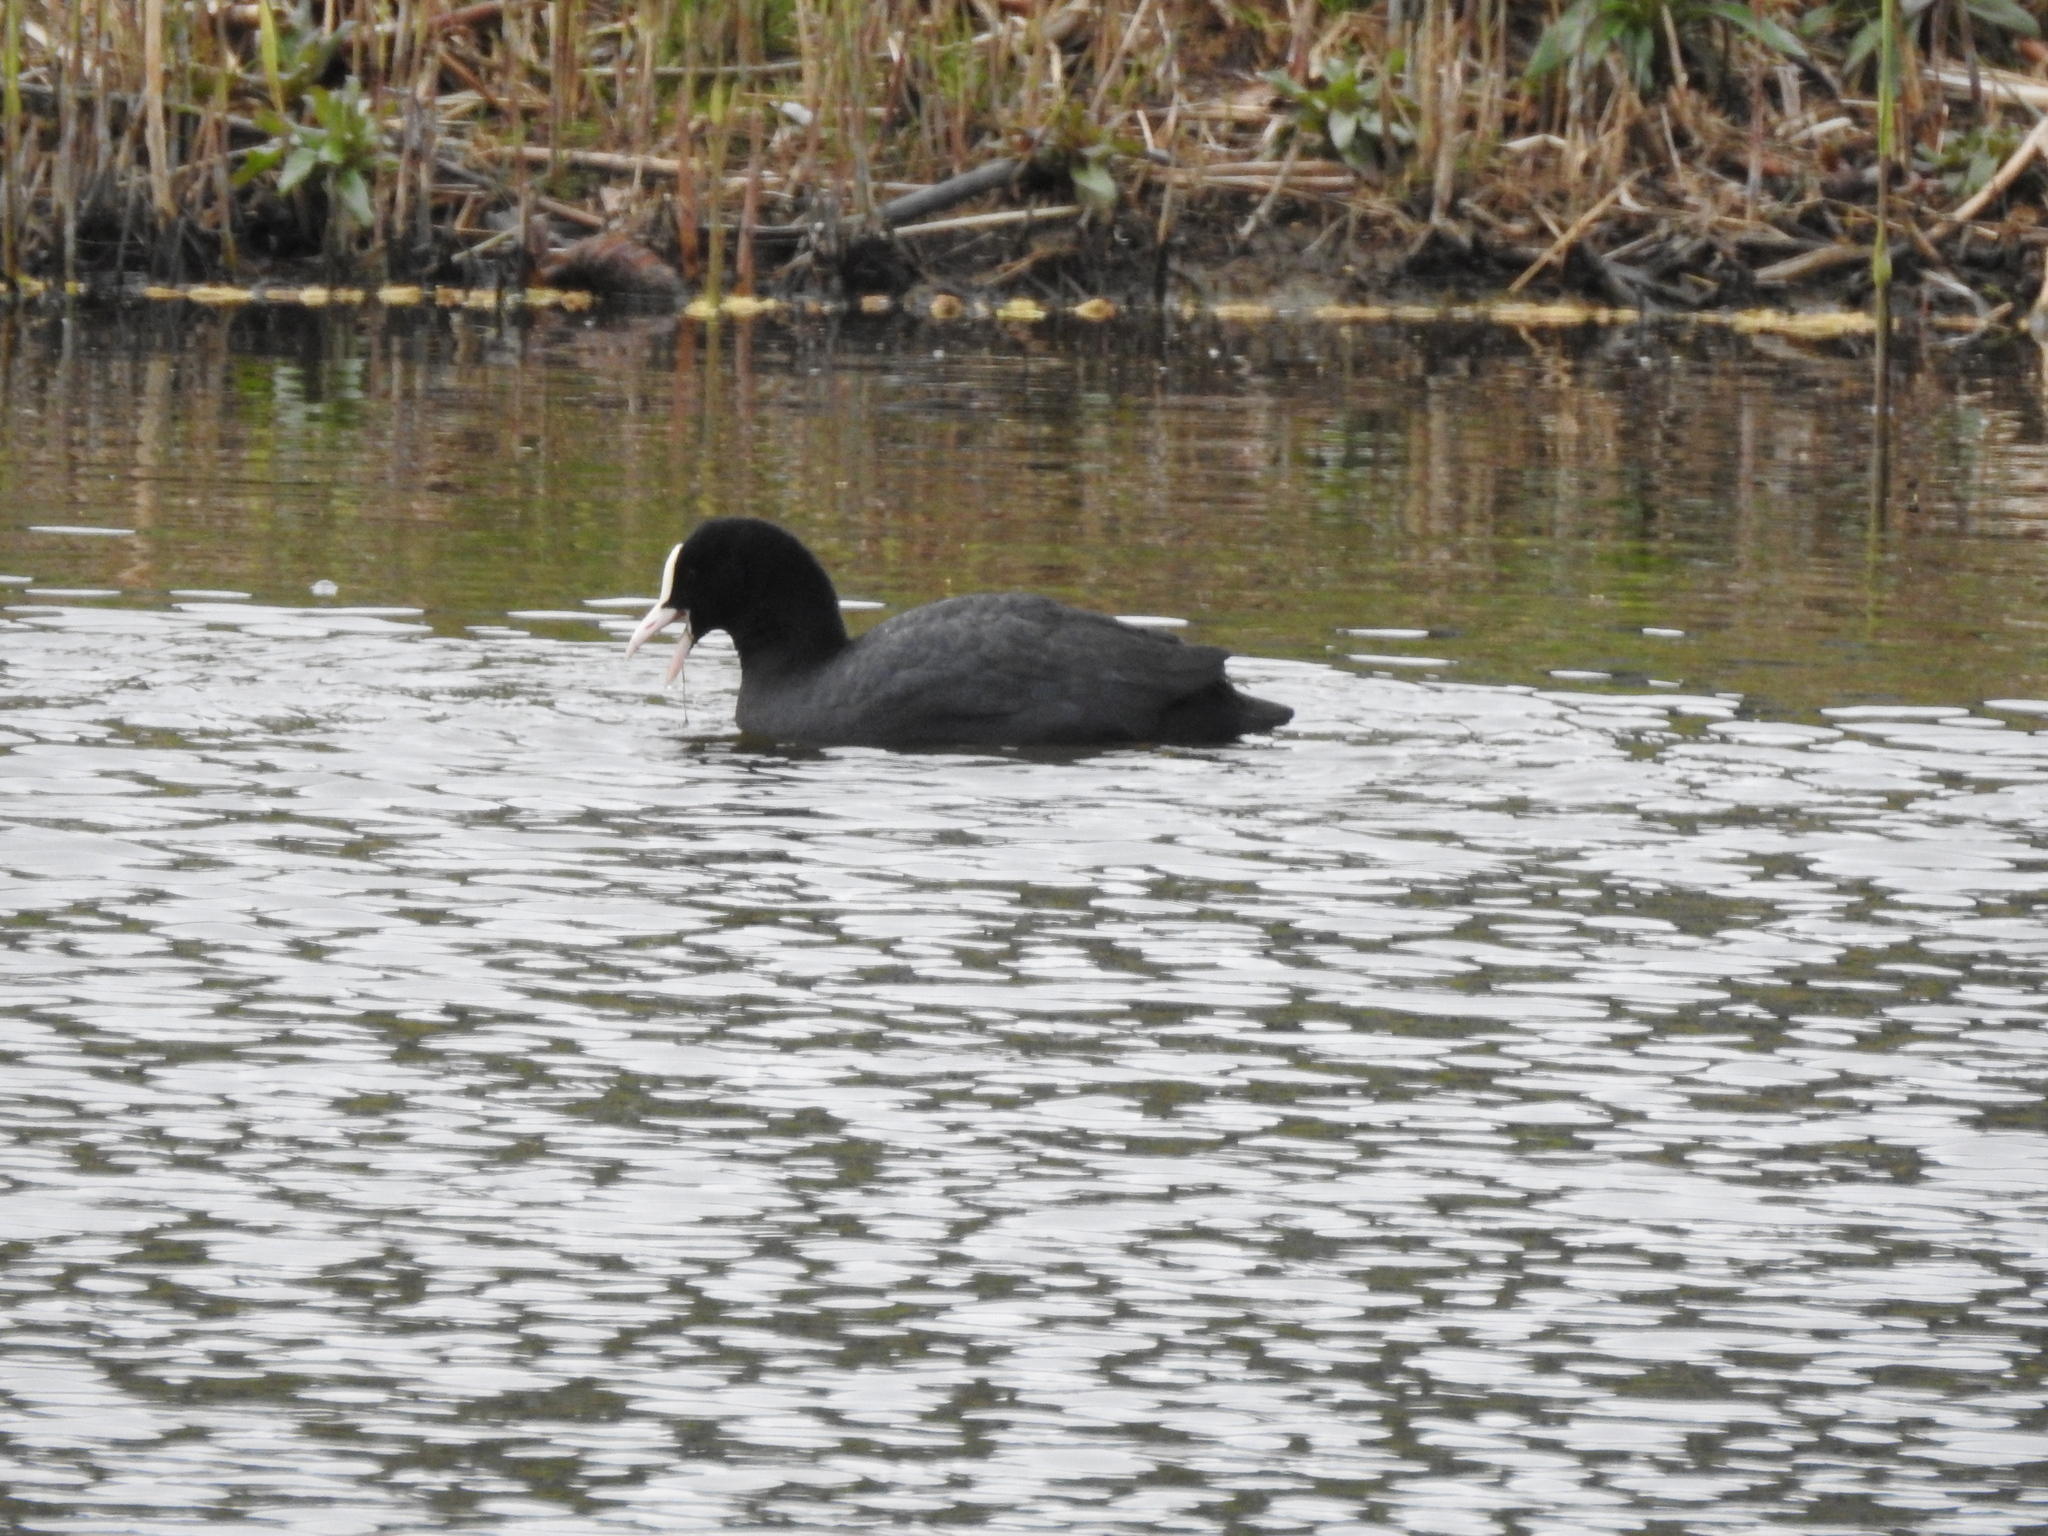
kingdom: Animalia
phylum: Chordata
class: Aves
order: Gruiformes
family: Rallidae
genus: Fulica
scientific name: Fulica atra
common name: Eurasian coot
